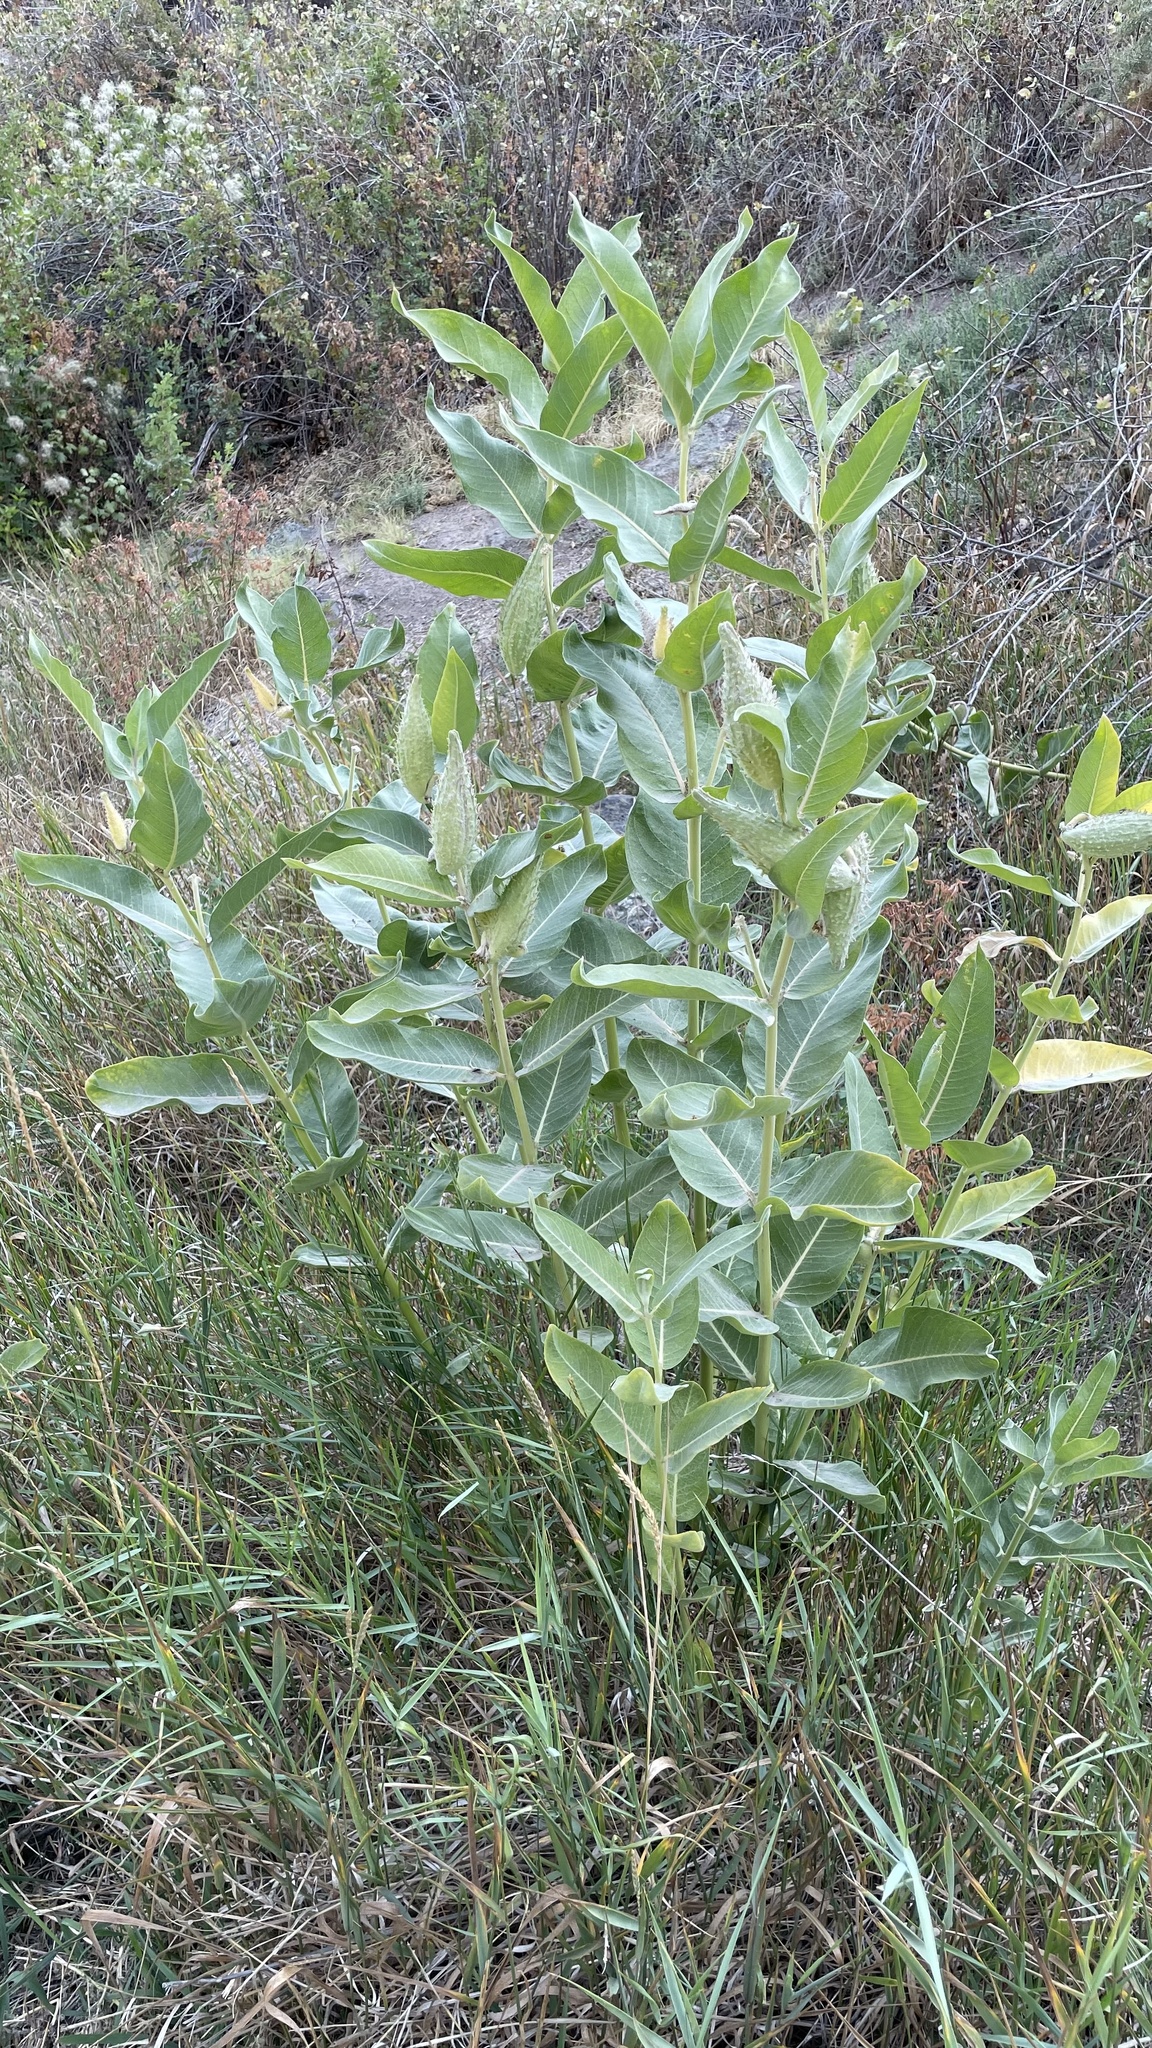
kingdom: Plantae
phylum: Tracheophyta
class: Magnoliopsida
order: Gentianales
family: Apocynaceae
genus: Asclepias
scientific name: Asclepias speciosa
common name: Showy milkweed
